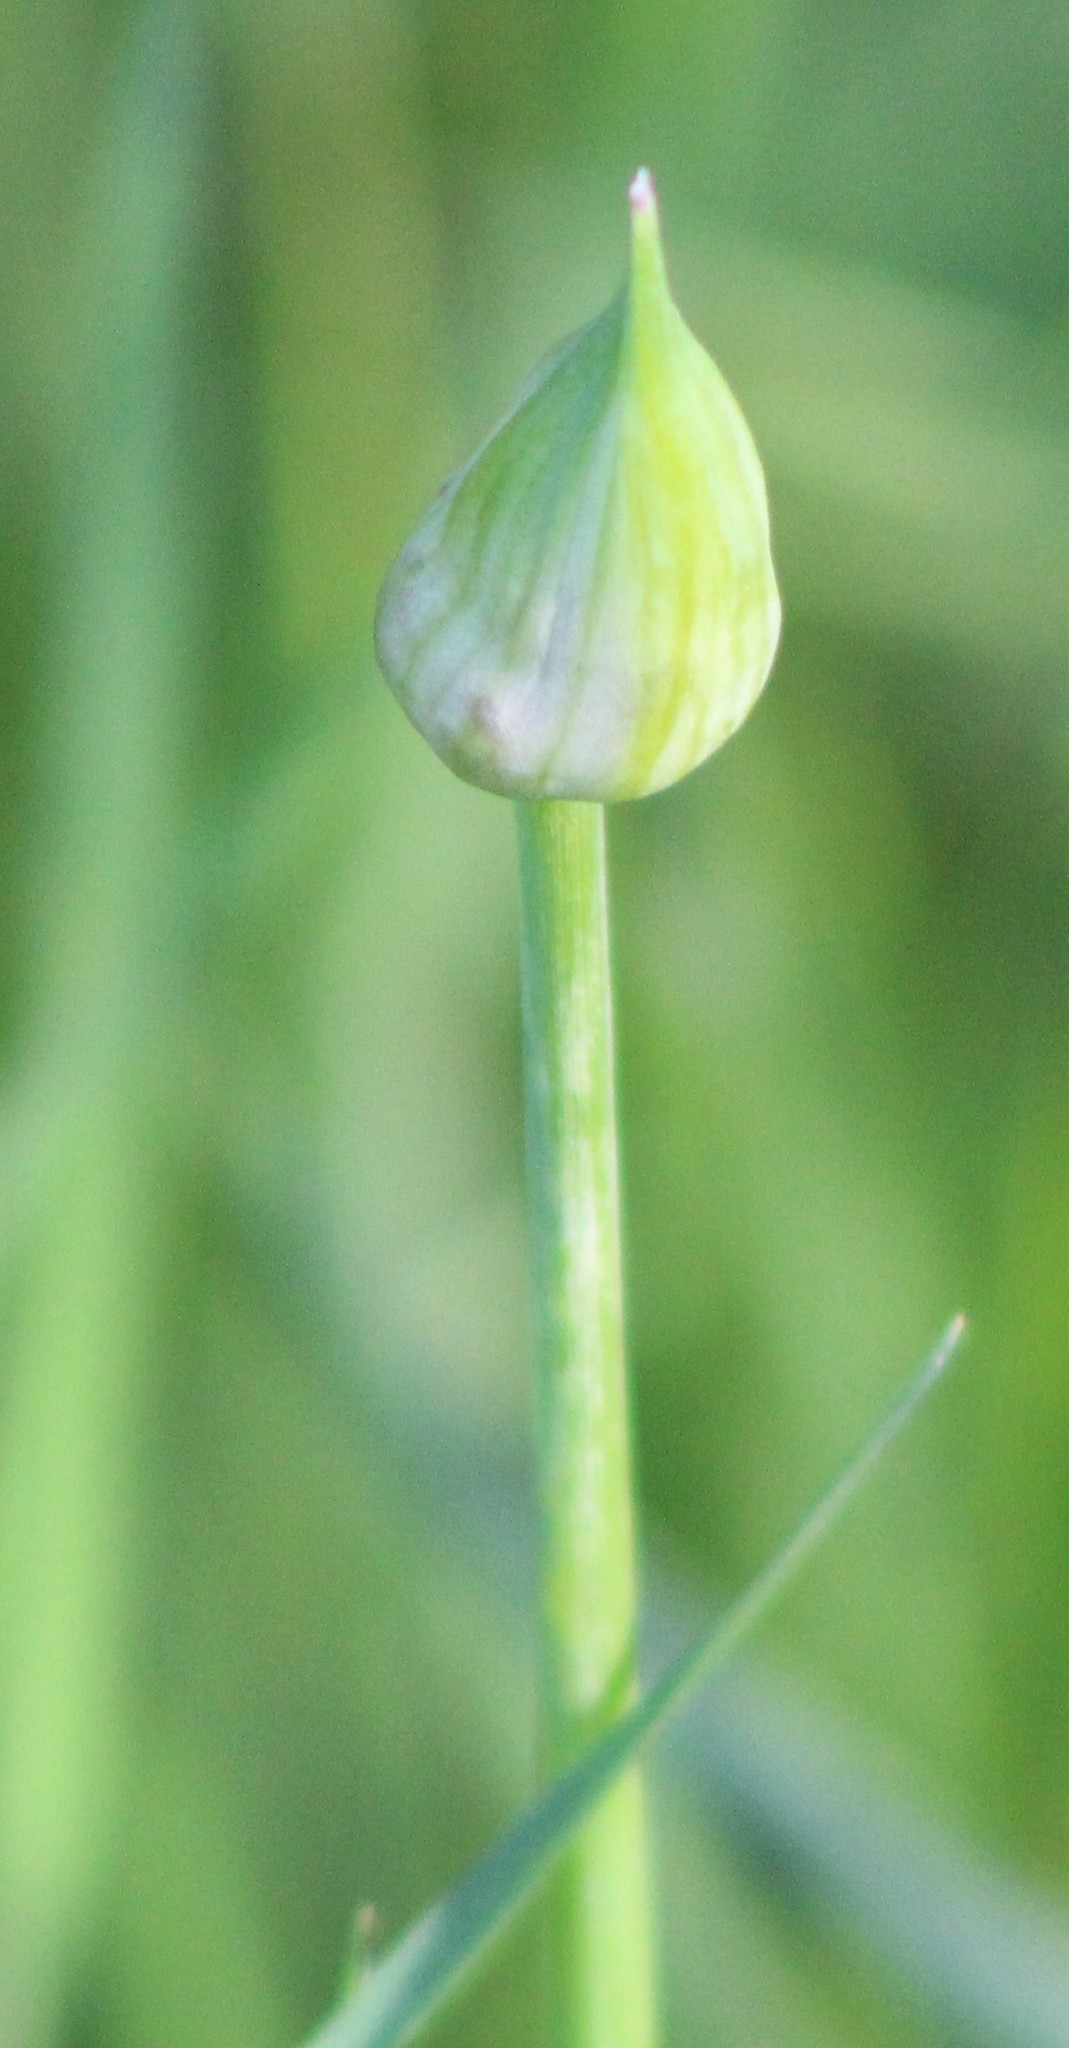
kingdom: Plantae
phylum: Tracheophyta
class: Liliopsida
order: Asparagales
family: Amaryllidaceae
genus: Allium
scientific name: Allium canadense
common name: Meadow garlic
